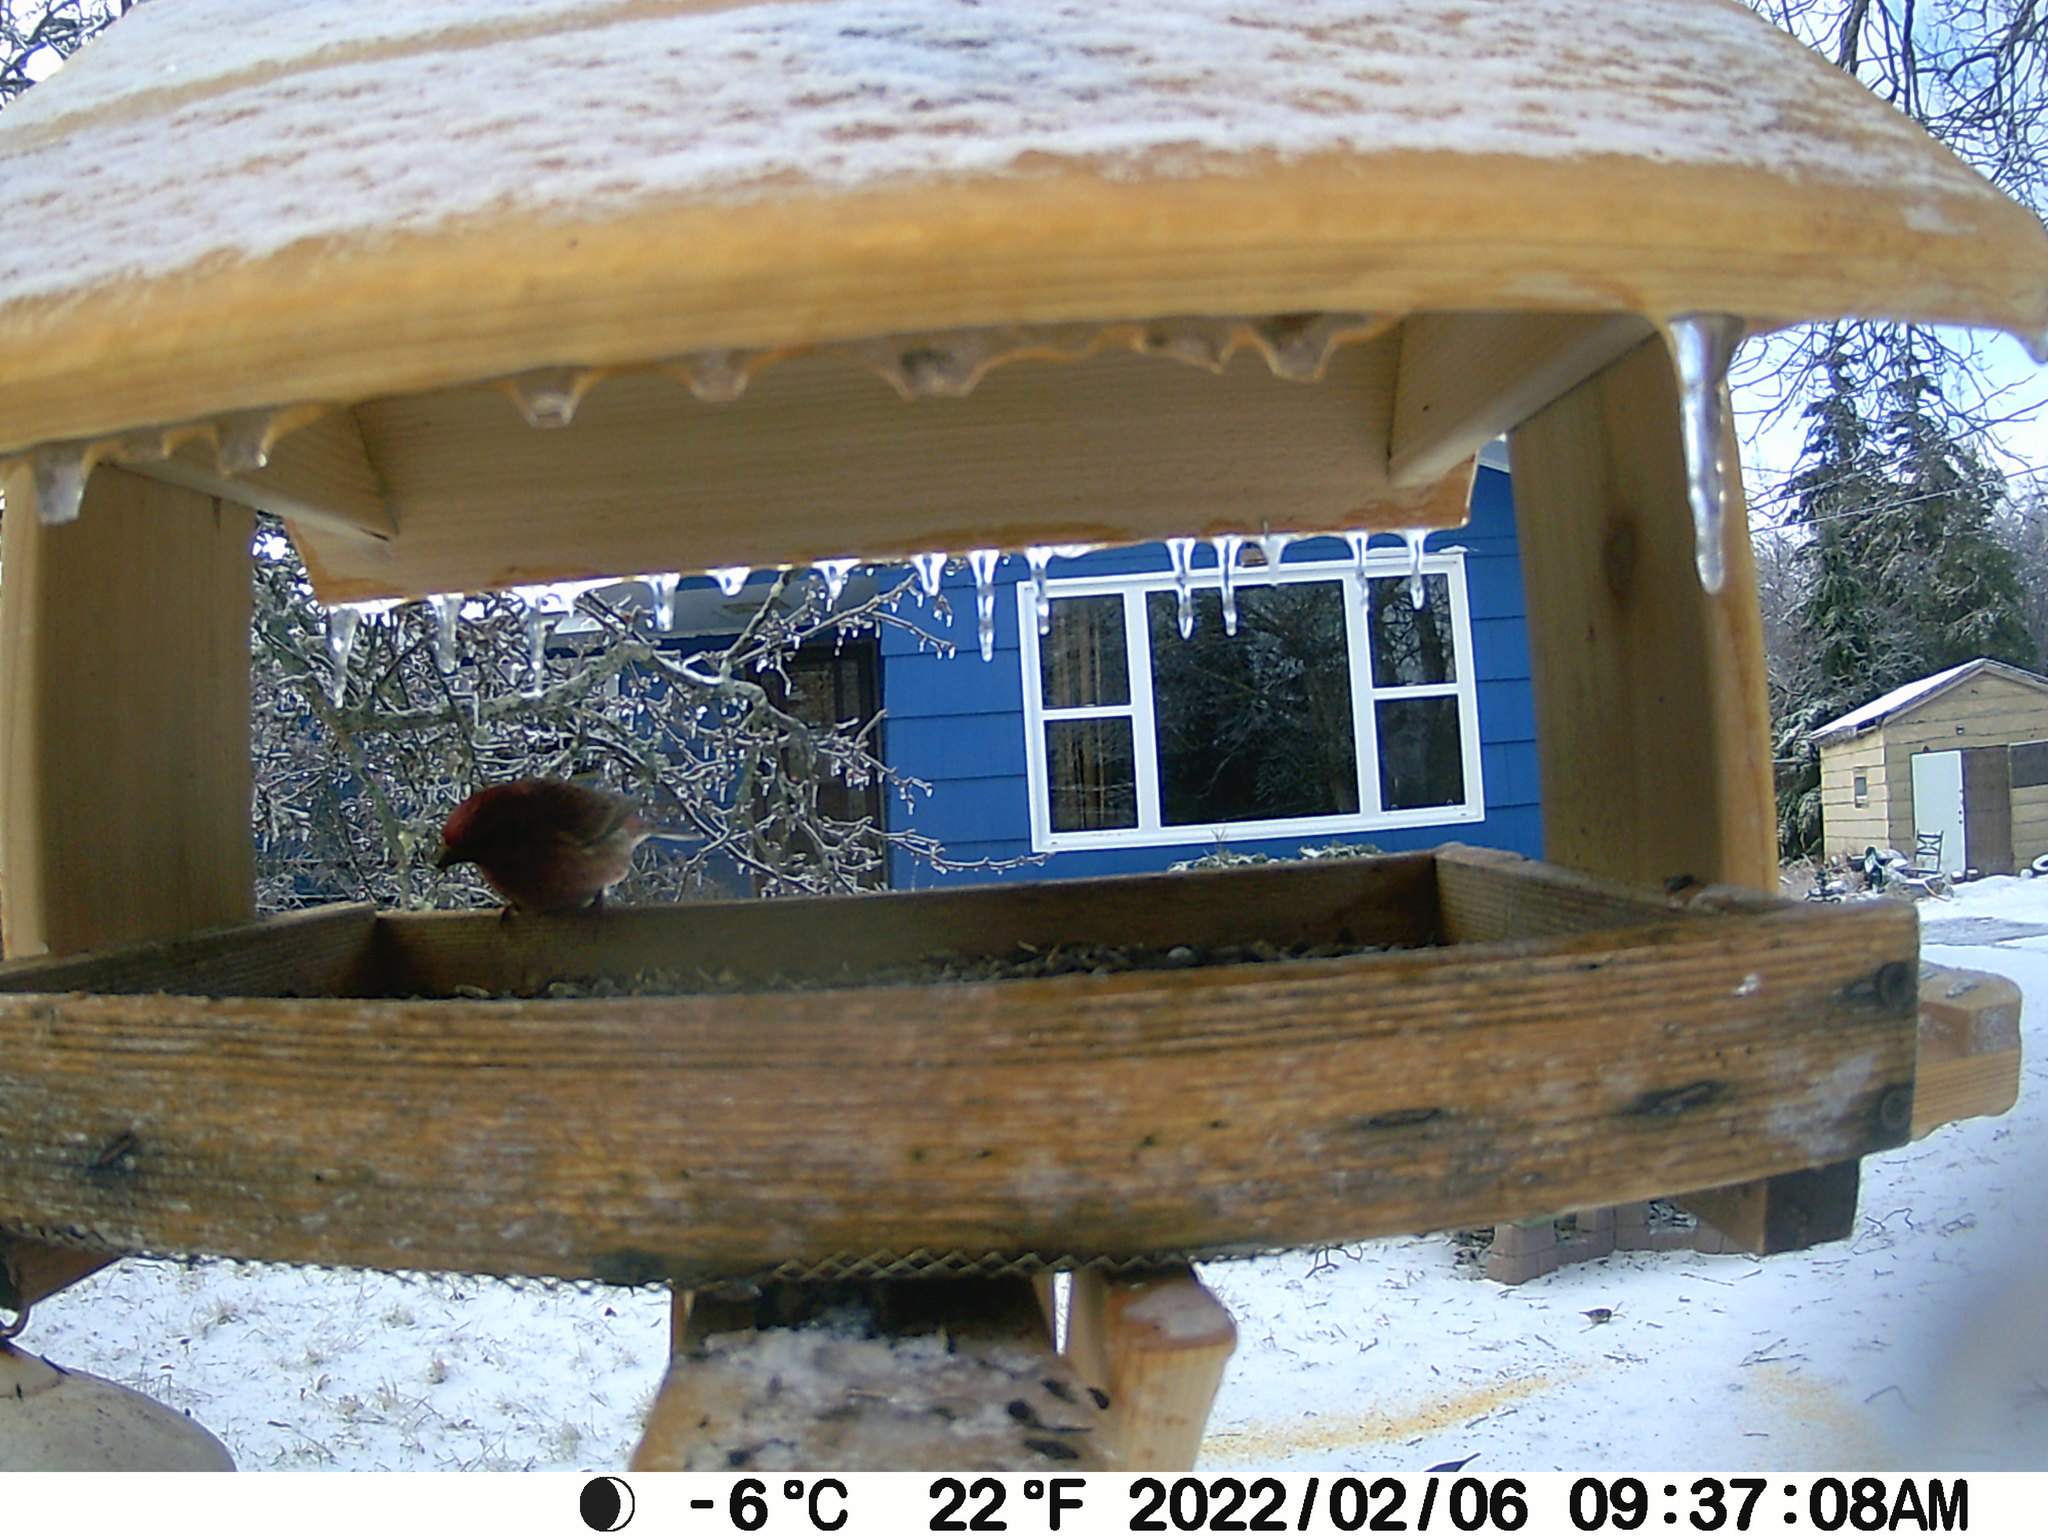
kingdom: Animalia
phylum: Chordata
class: Aves
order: Passeriformes
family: Fringillidae
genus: Haemorhous
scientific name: Haemorhous purpureus
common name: Purple finch
